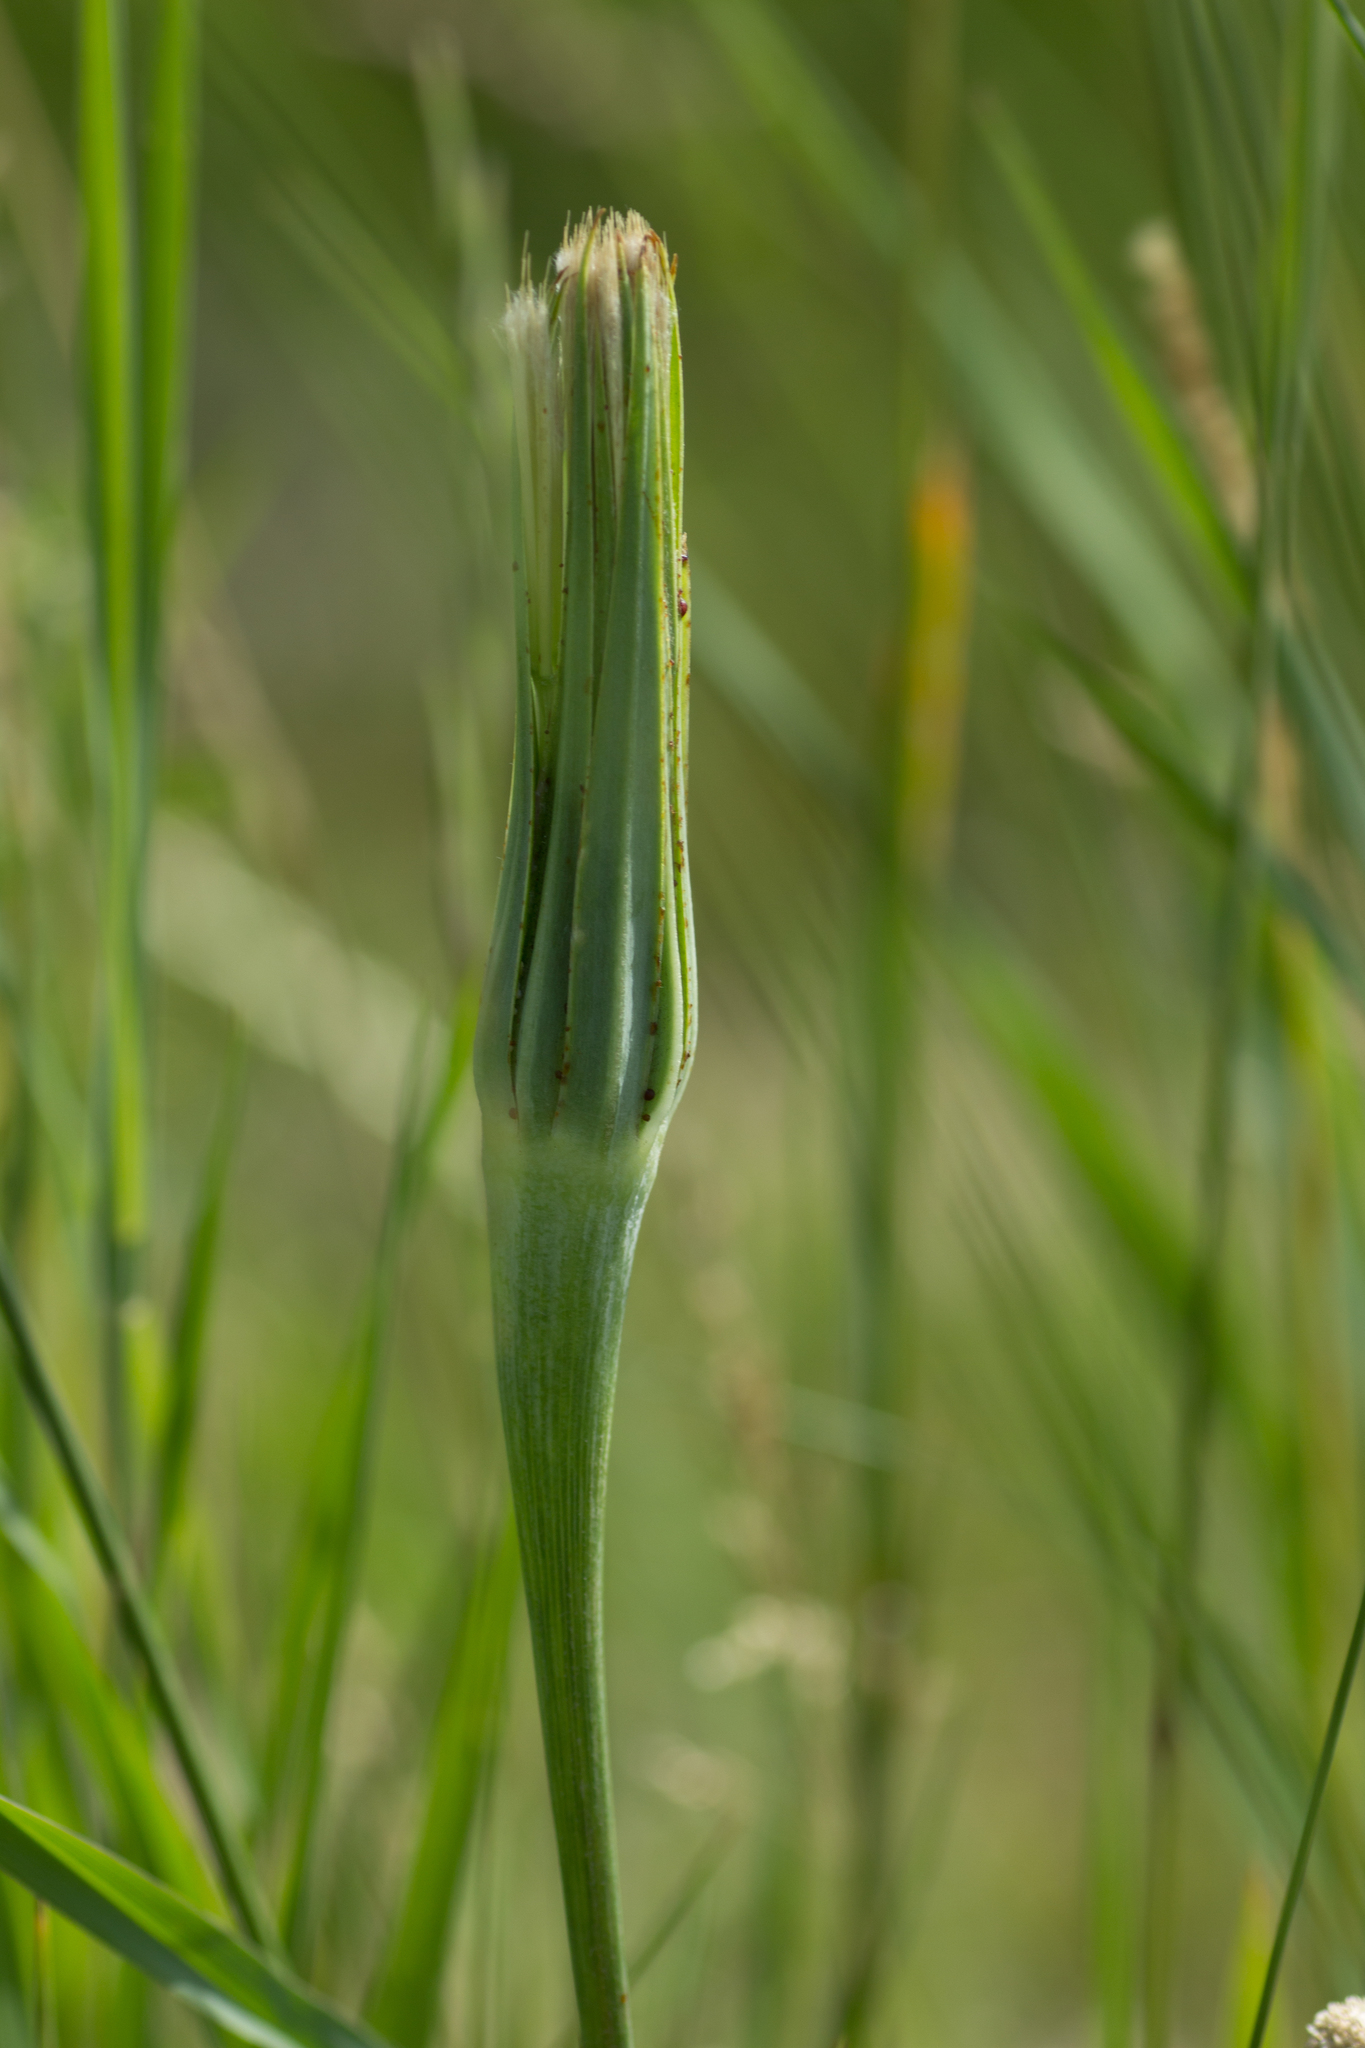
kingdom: Plantae
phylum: Tracheophyta
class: Magnoliopsida
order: Asterales
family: Asteraceae
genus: Tragopogon
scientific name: Tragopogon dubius
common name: Yellow salsify
